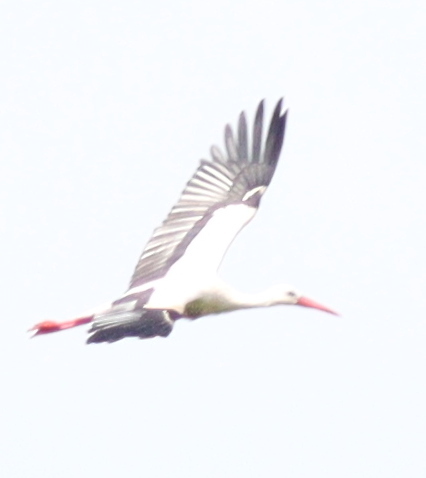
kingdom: Animalia
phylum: Chordata
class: Aves
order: Ciconiiformes
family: Ciconiidae
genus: Ciconia
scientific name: Ciconia ciconia
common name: White stork
